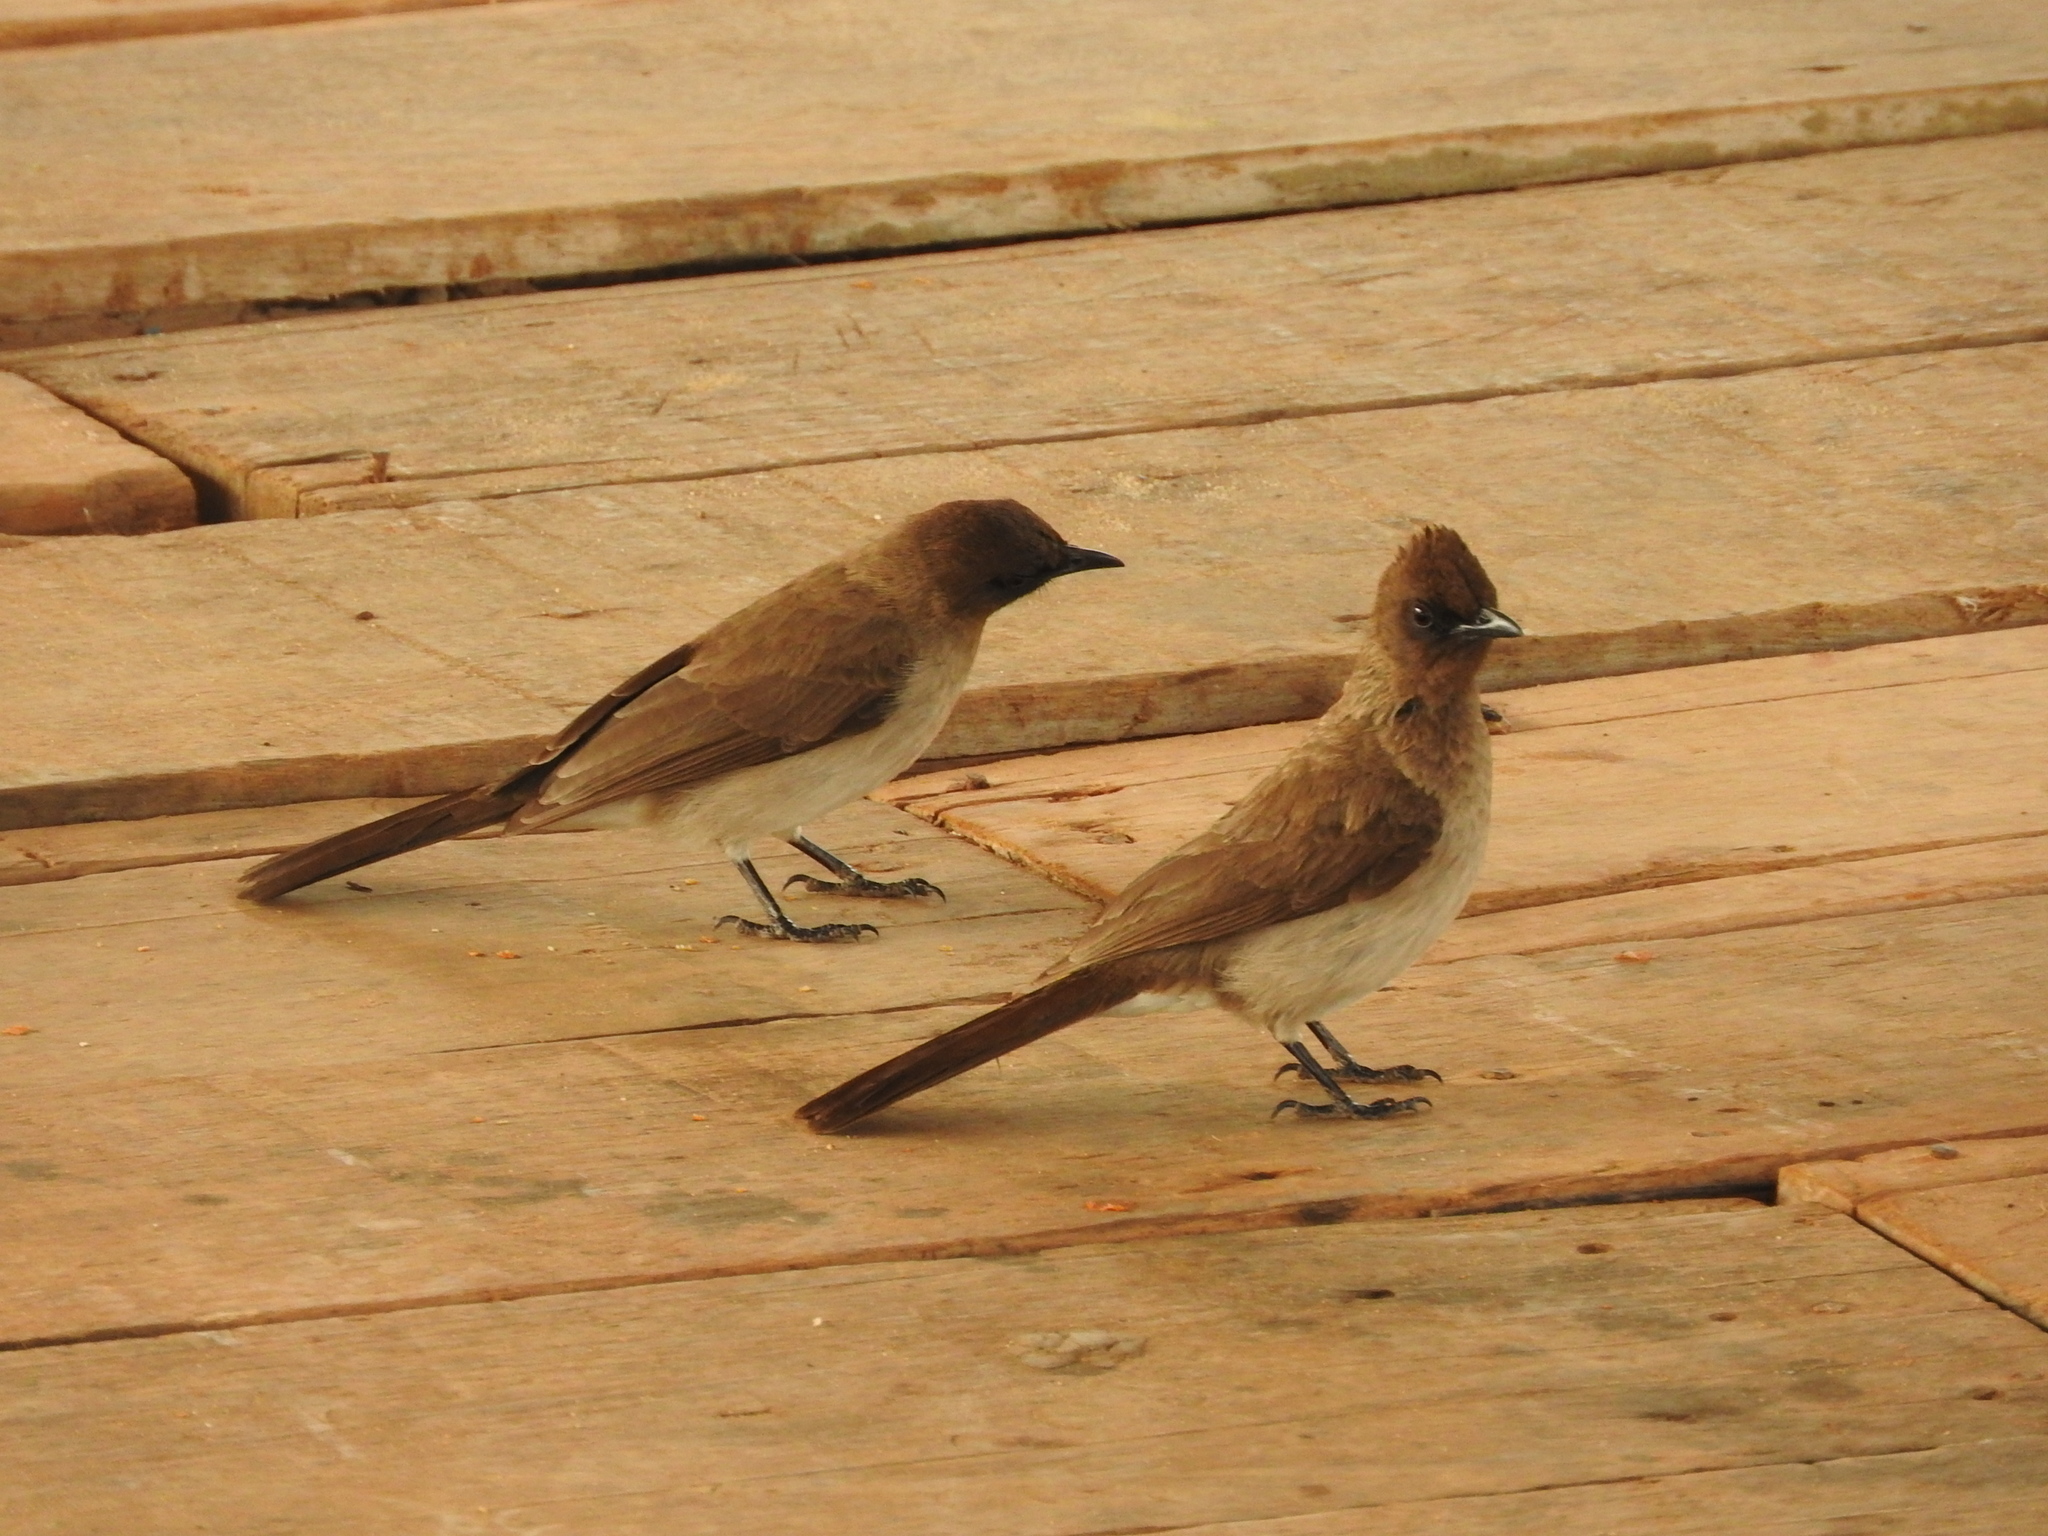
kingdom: Animalia
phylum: Chordata
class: Aves
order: Passeriformes
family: Pycnonotidae
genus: Pycnonotus
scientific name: Pycnonotus barbatus
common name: Common bulbul
